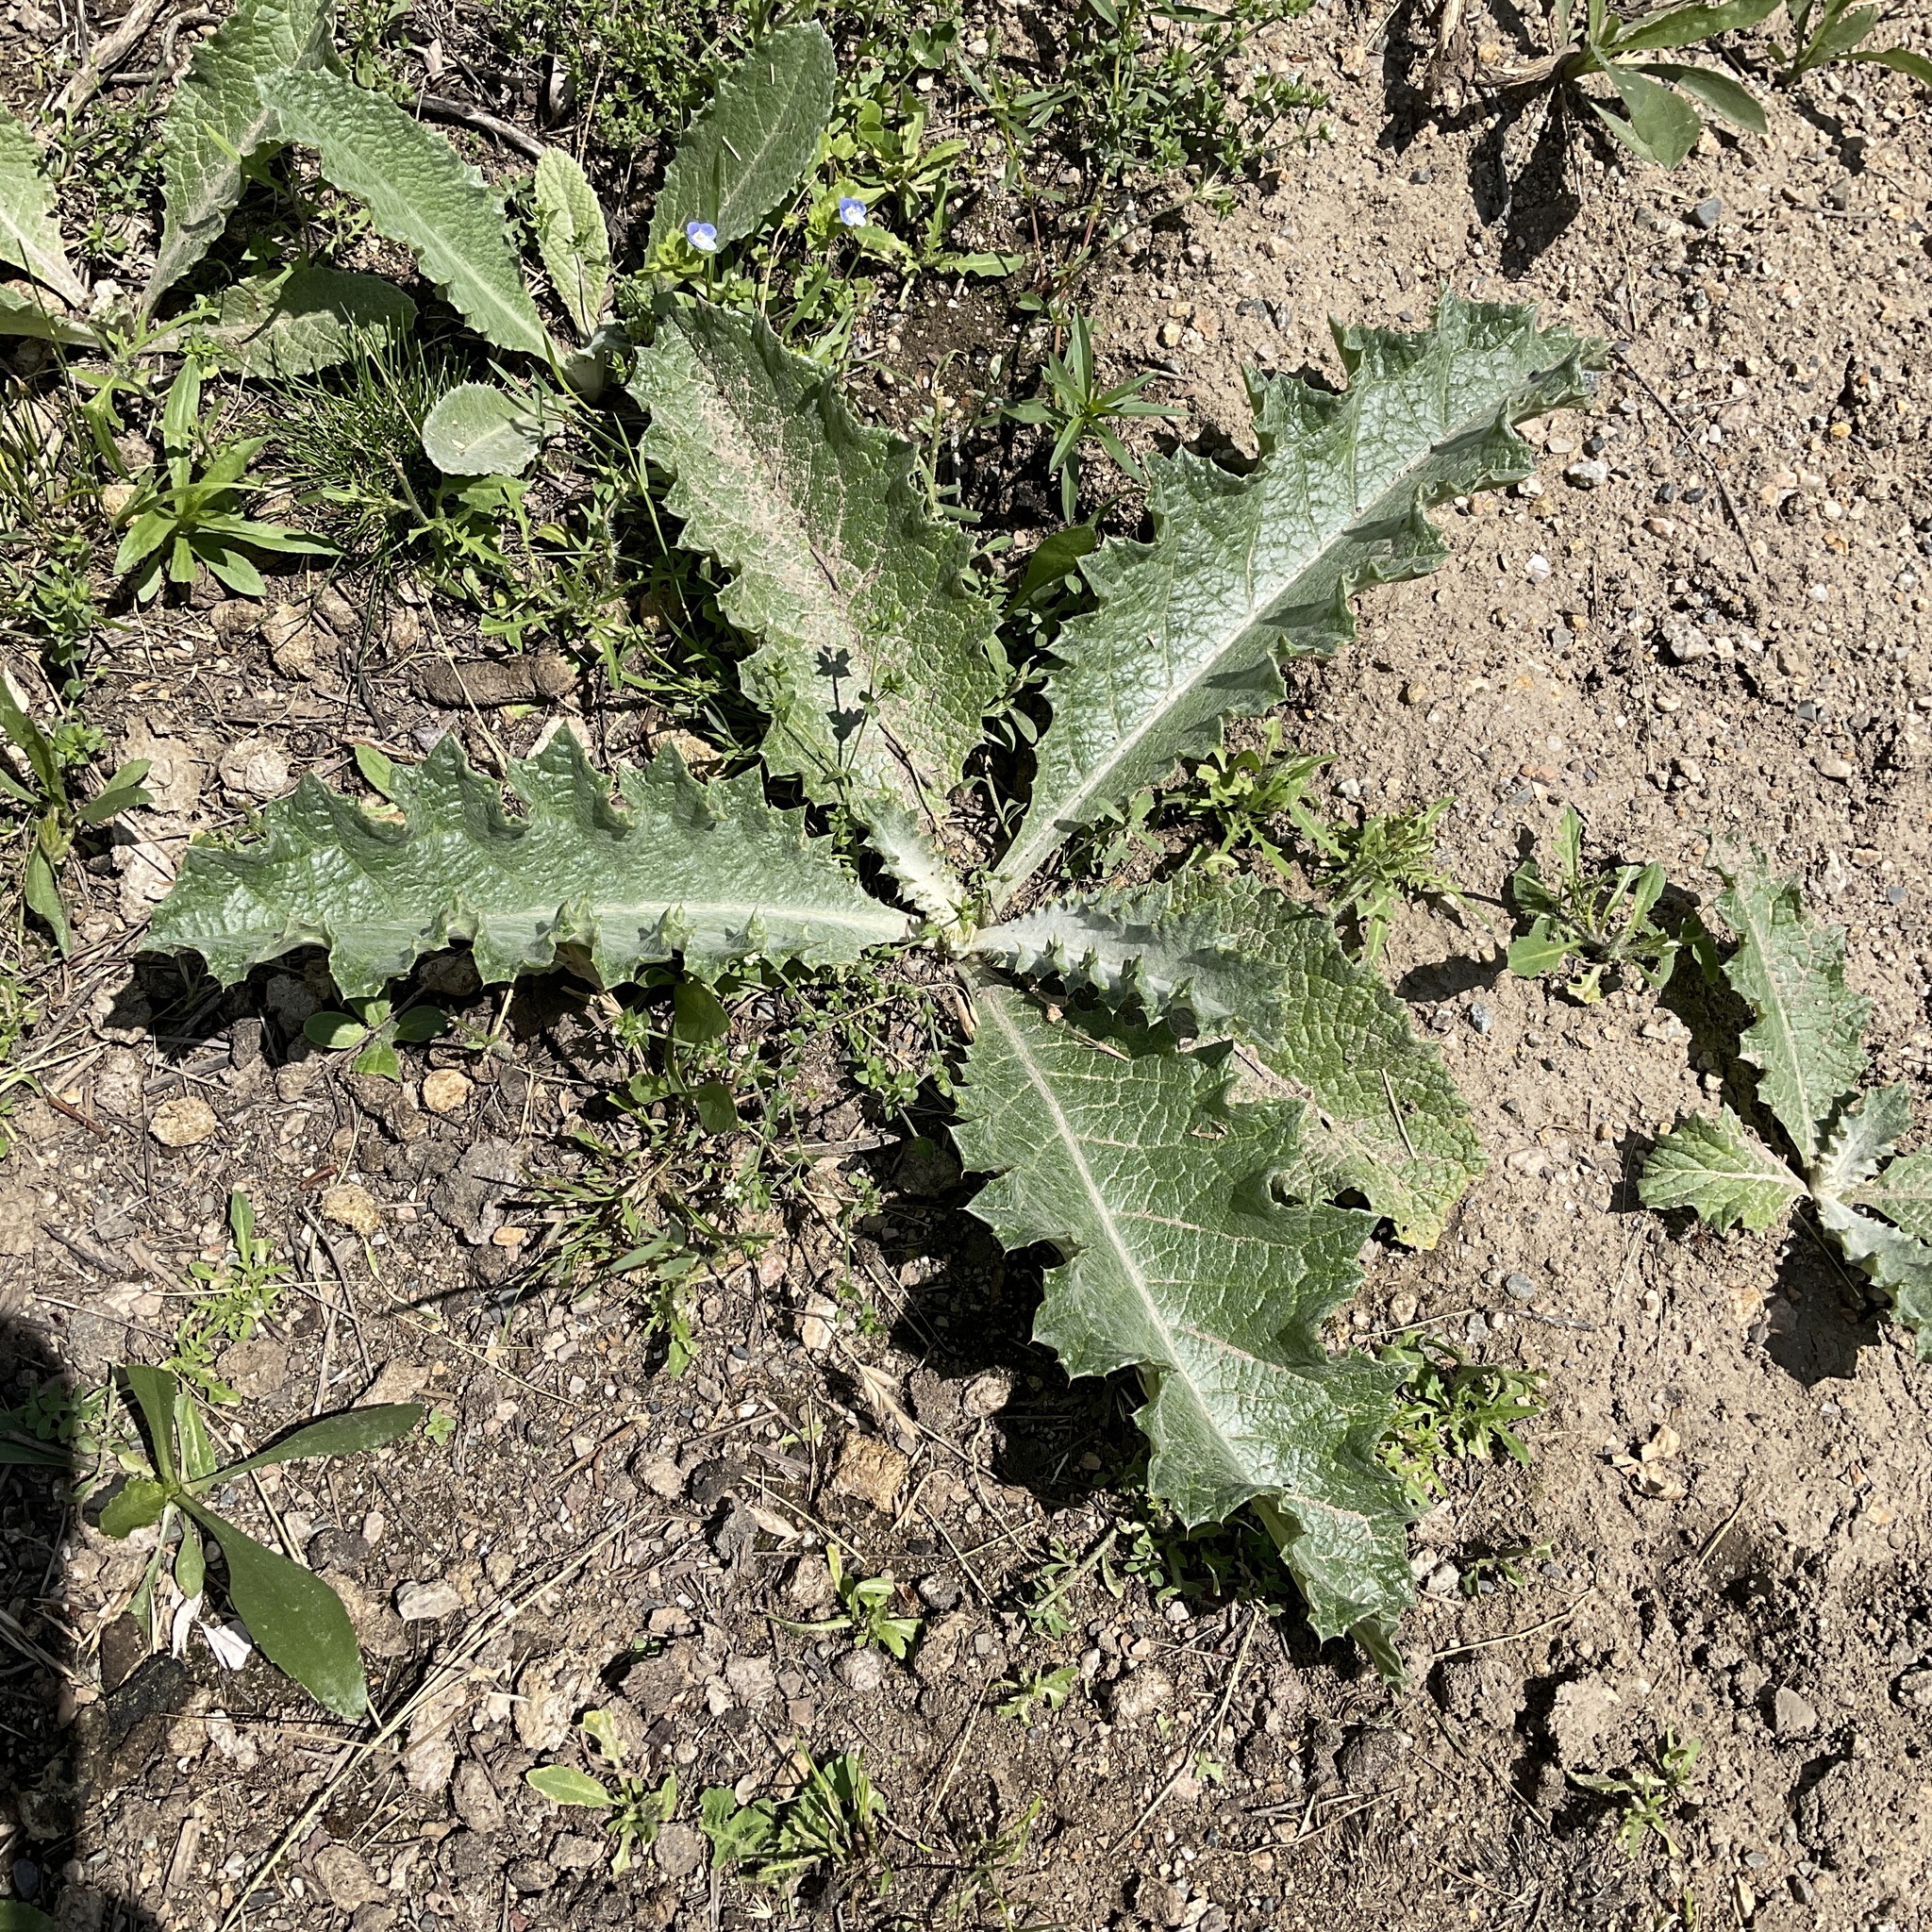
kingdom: Plantae
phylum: Tracheophyta
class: Magnoliopsida
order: Asterales
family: Asteraceae
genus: Onopordum
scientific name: Onopordum acanthium
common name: Scotch thistle
